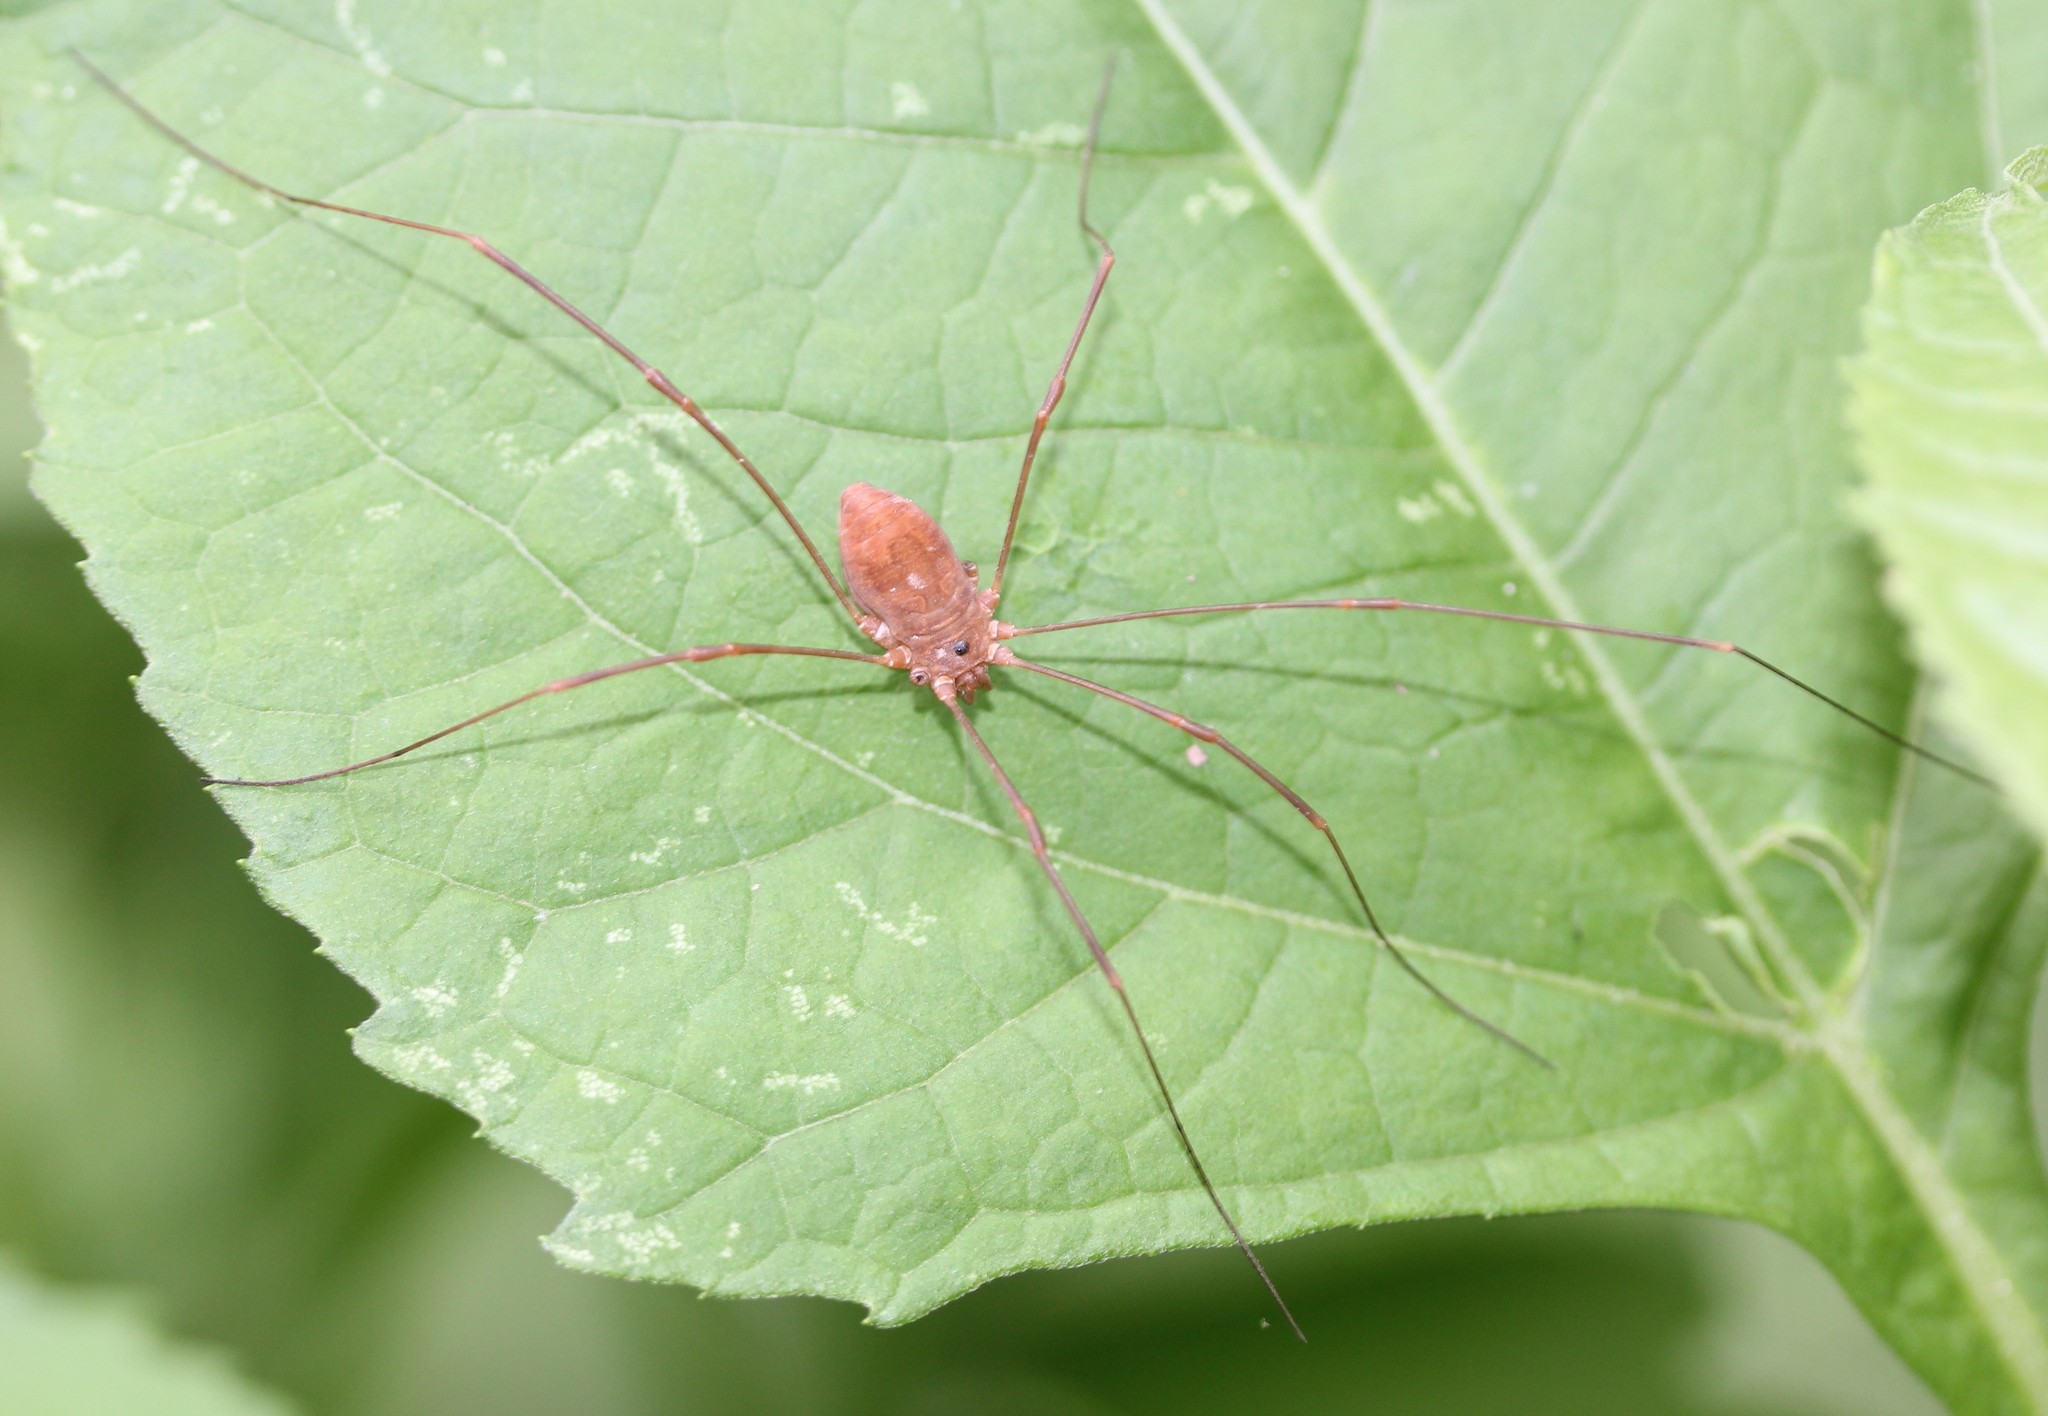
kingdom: Animalia
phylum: Arthropoda
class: Arachnida
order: Opiliones
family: Sclerosomatidae
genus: Leiobunum
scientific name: Leiobunum ventricosum
